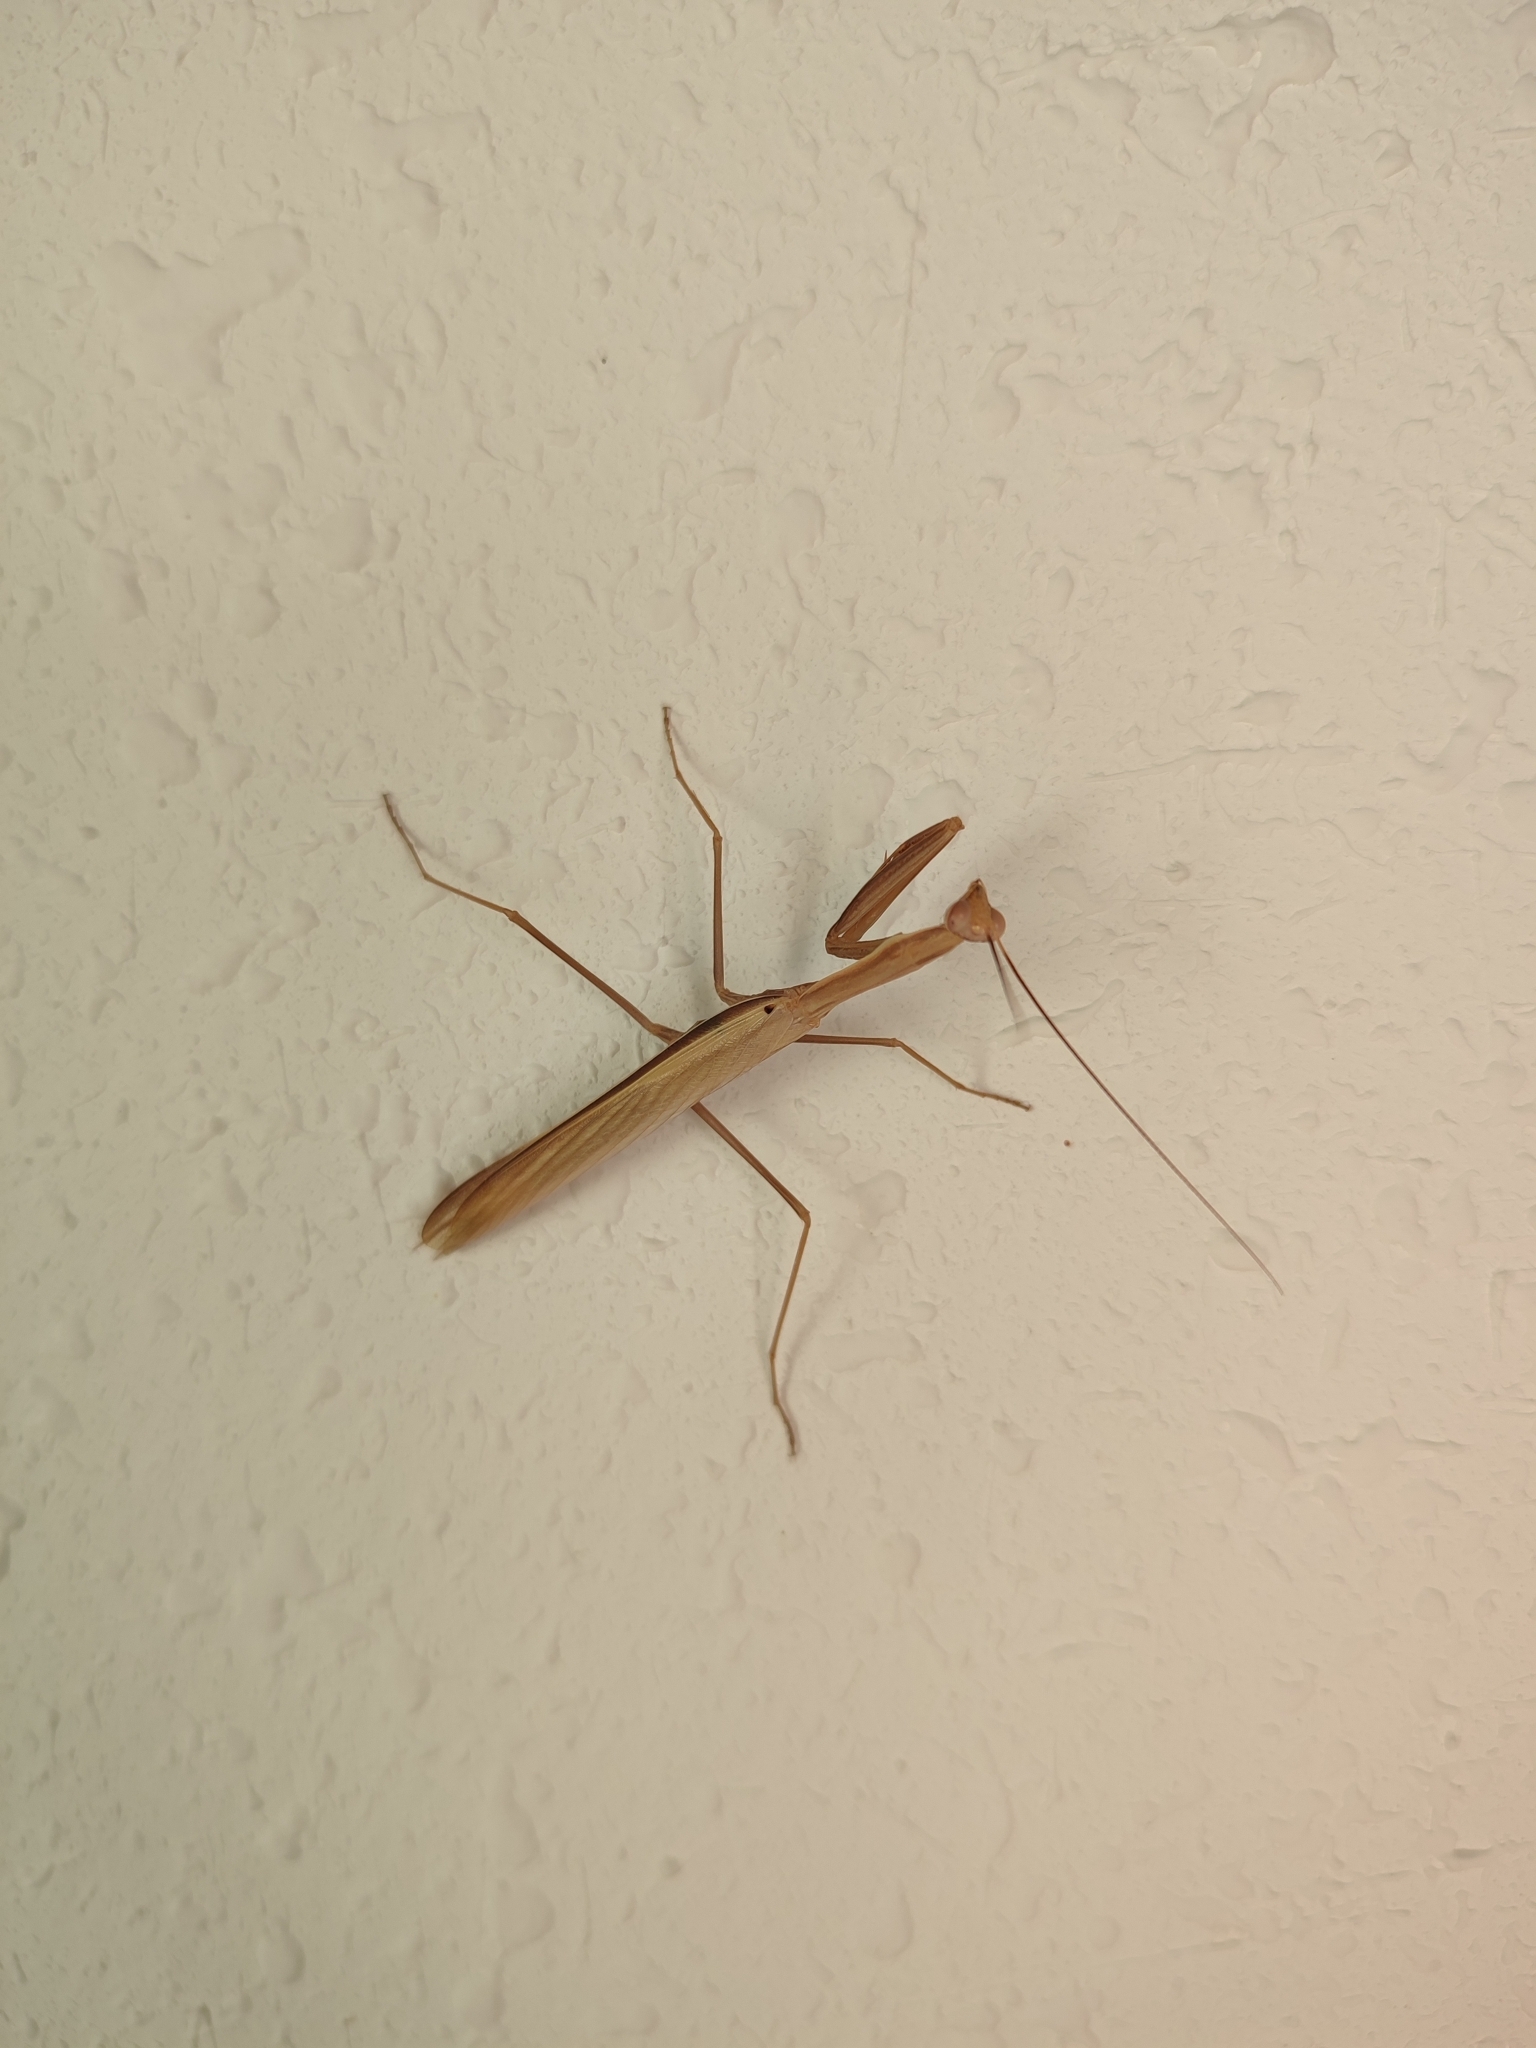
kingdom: Animalia
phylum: Arthropoda
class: Insecta
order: Mantodea
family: Mantidae
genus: Mantis
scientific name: Mantis religiosa
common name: Praying mantis
